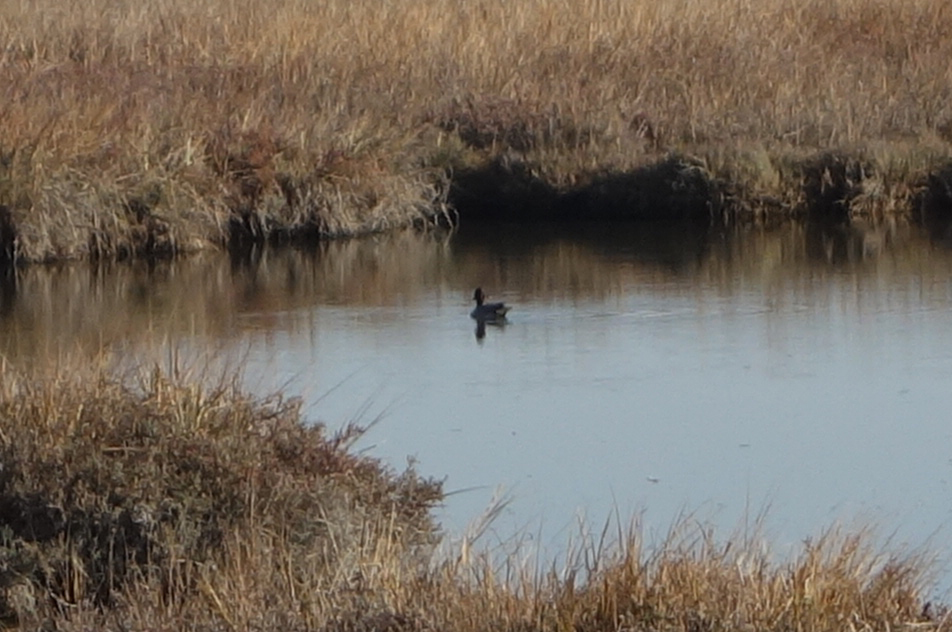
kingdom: Animalia
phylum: Chordata
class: Aves
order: Anseriformes
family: Anatidae
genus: Anas
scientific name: Anas crecca
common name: Eurasian teal
